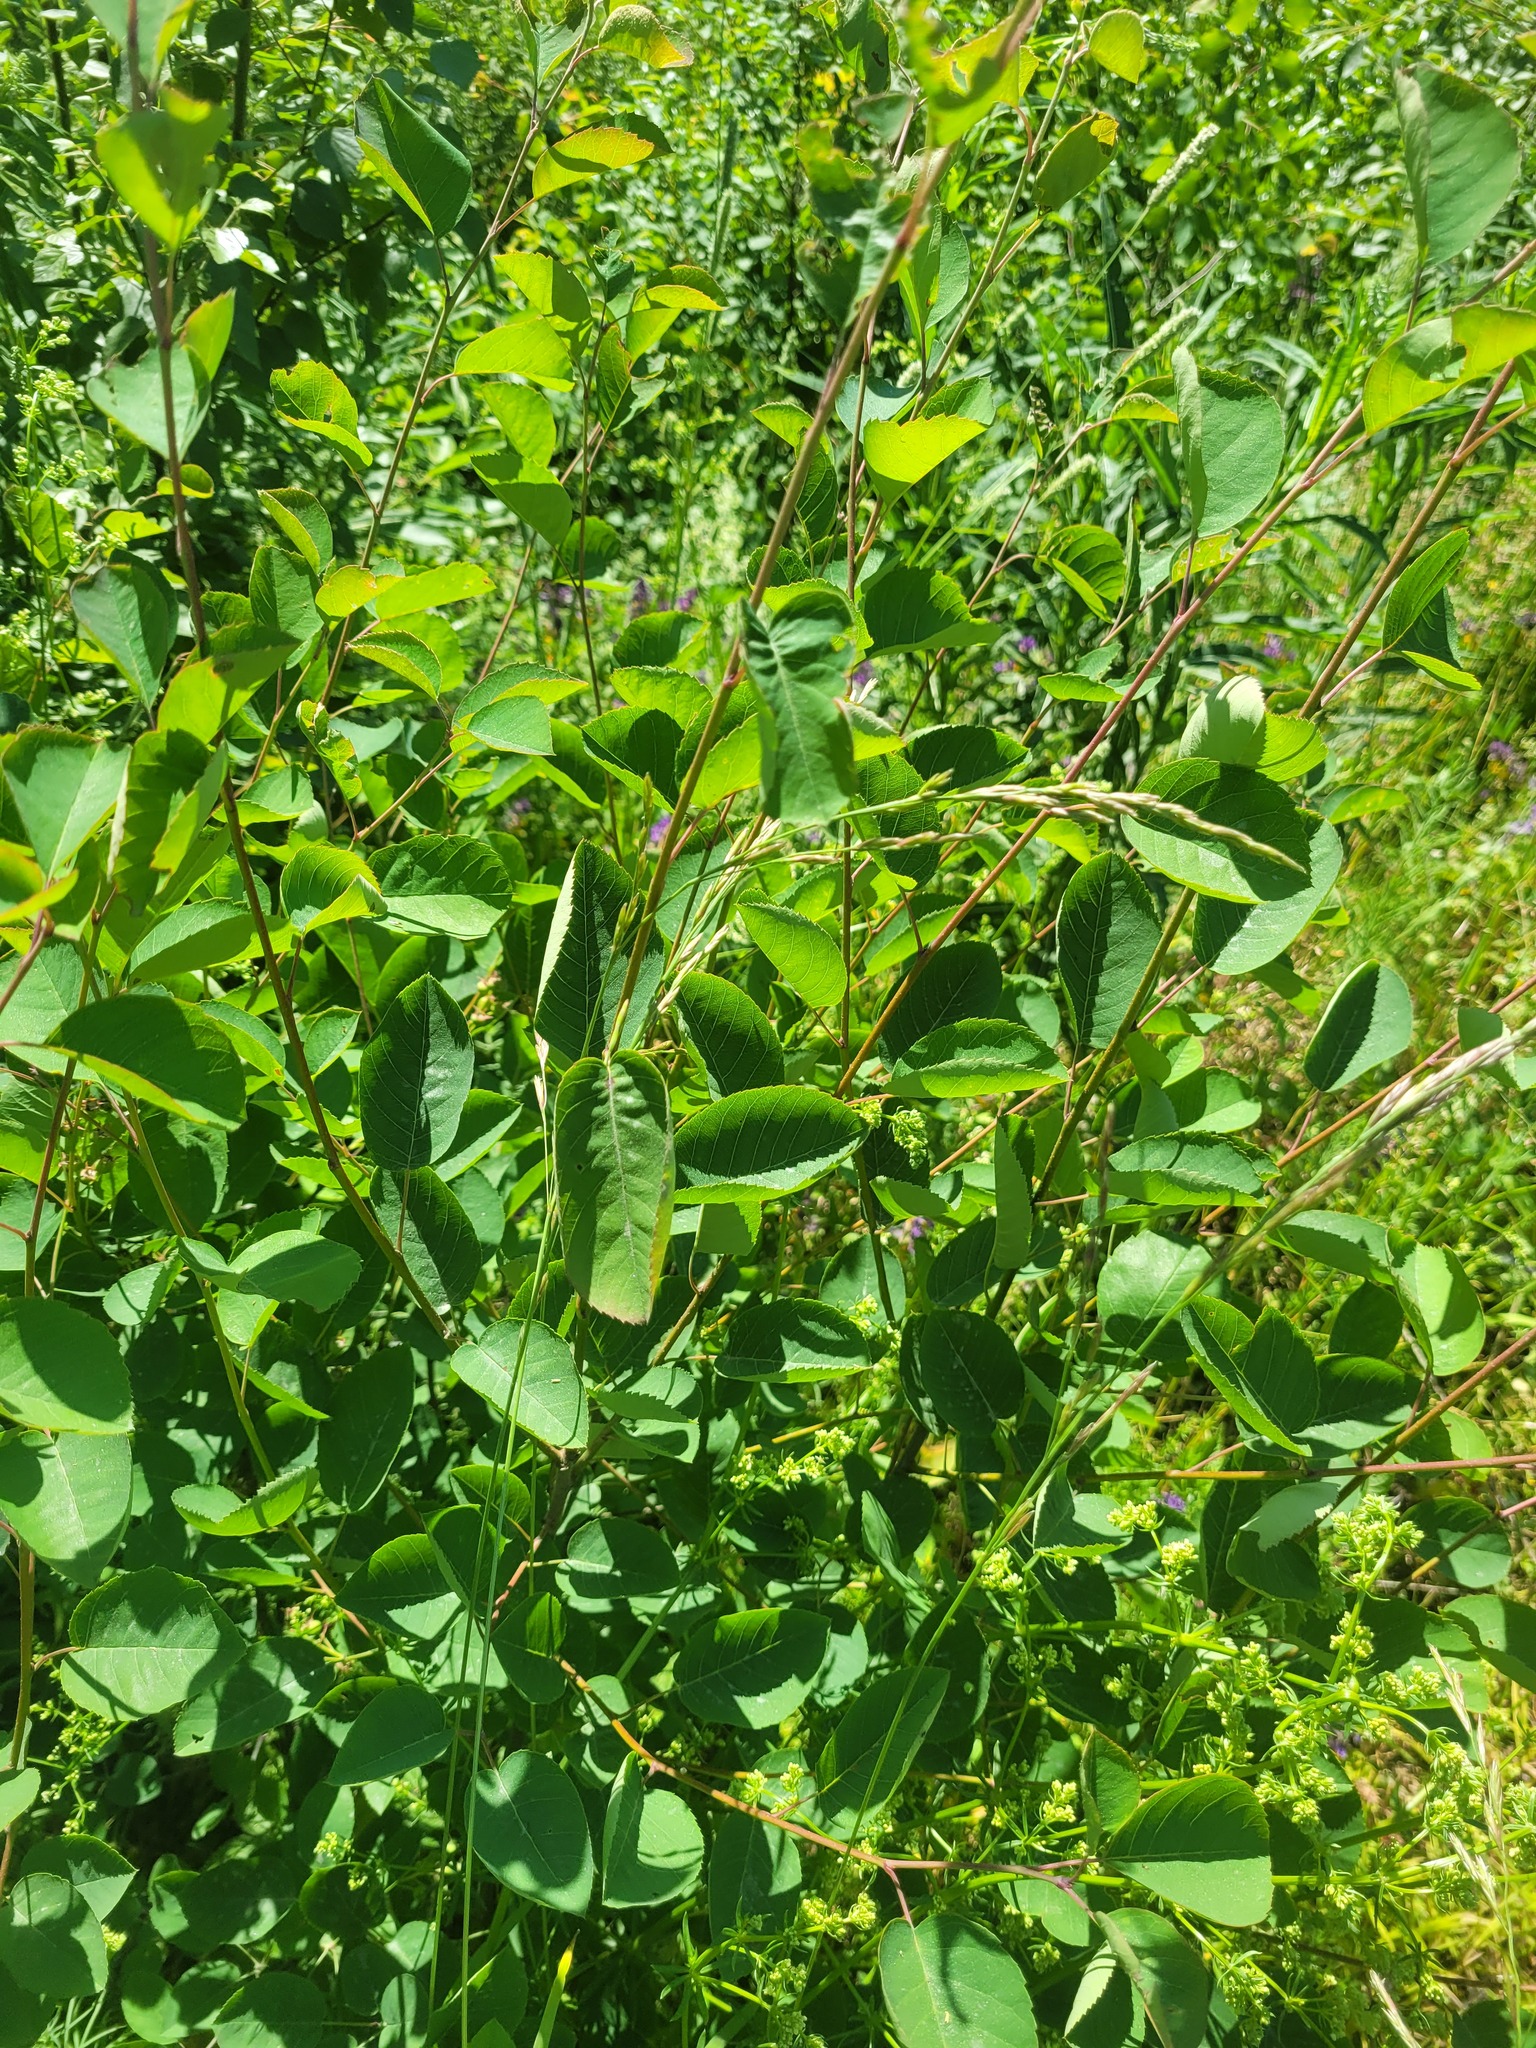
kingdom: Plantae
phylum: Tracheophyta
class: Magnoliopsida
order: Rosales
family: Rosaceae
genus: Amelanchier
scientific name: Amelanchier
